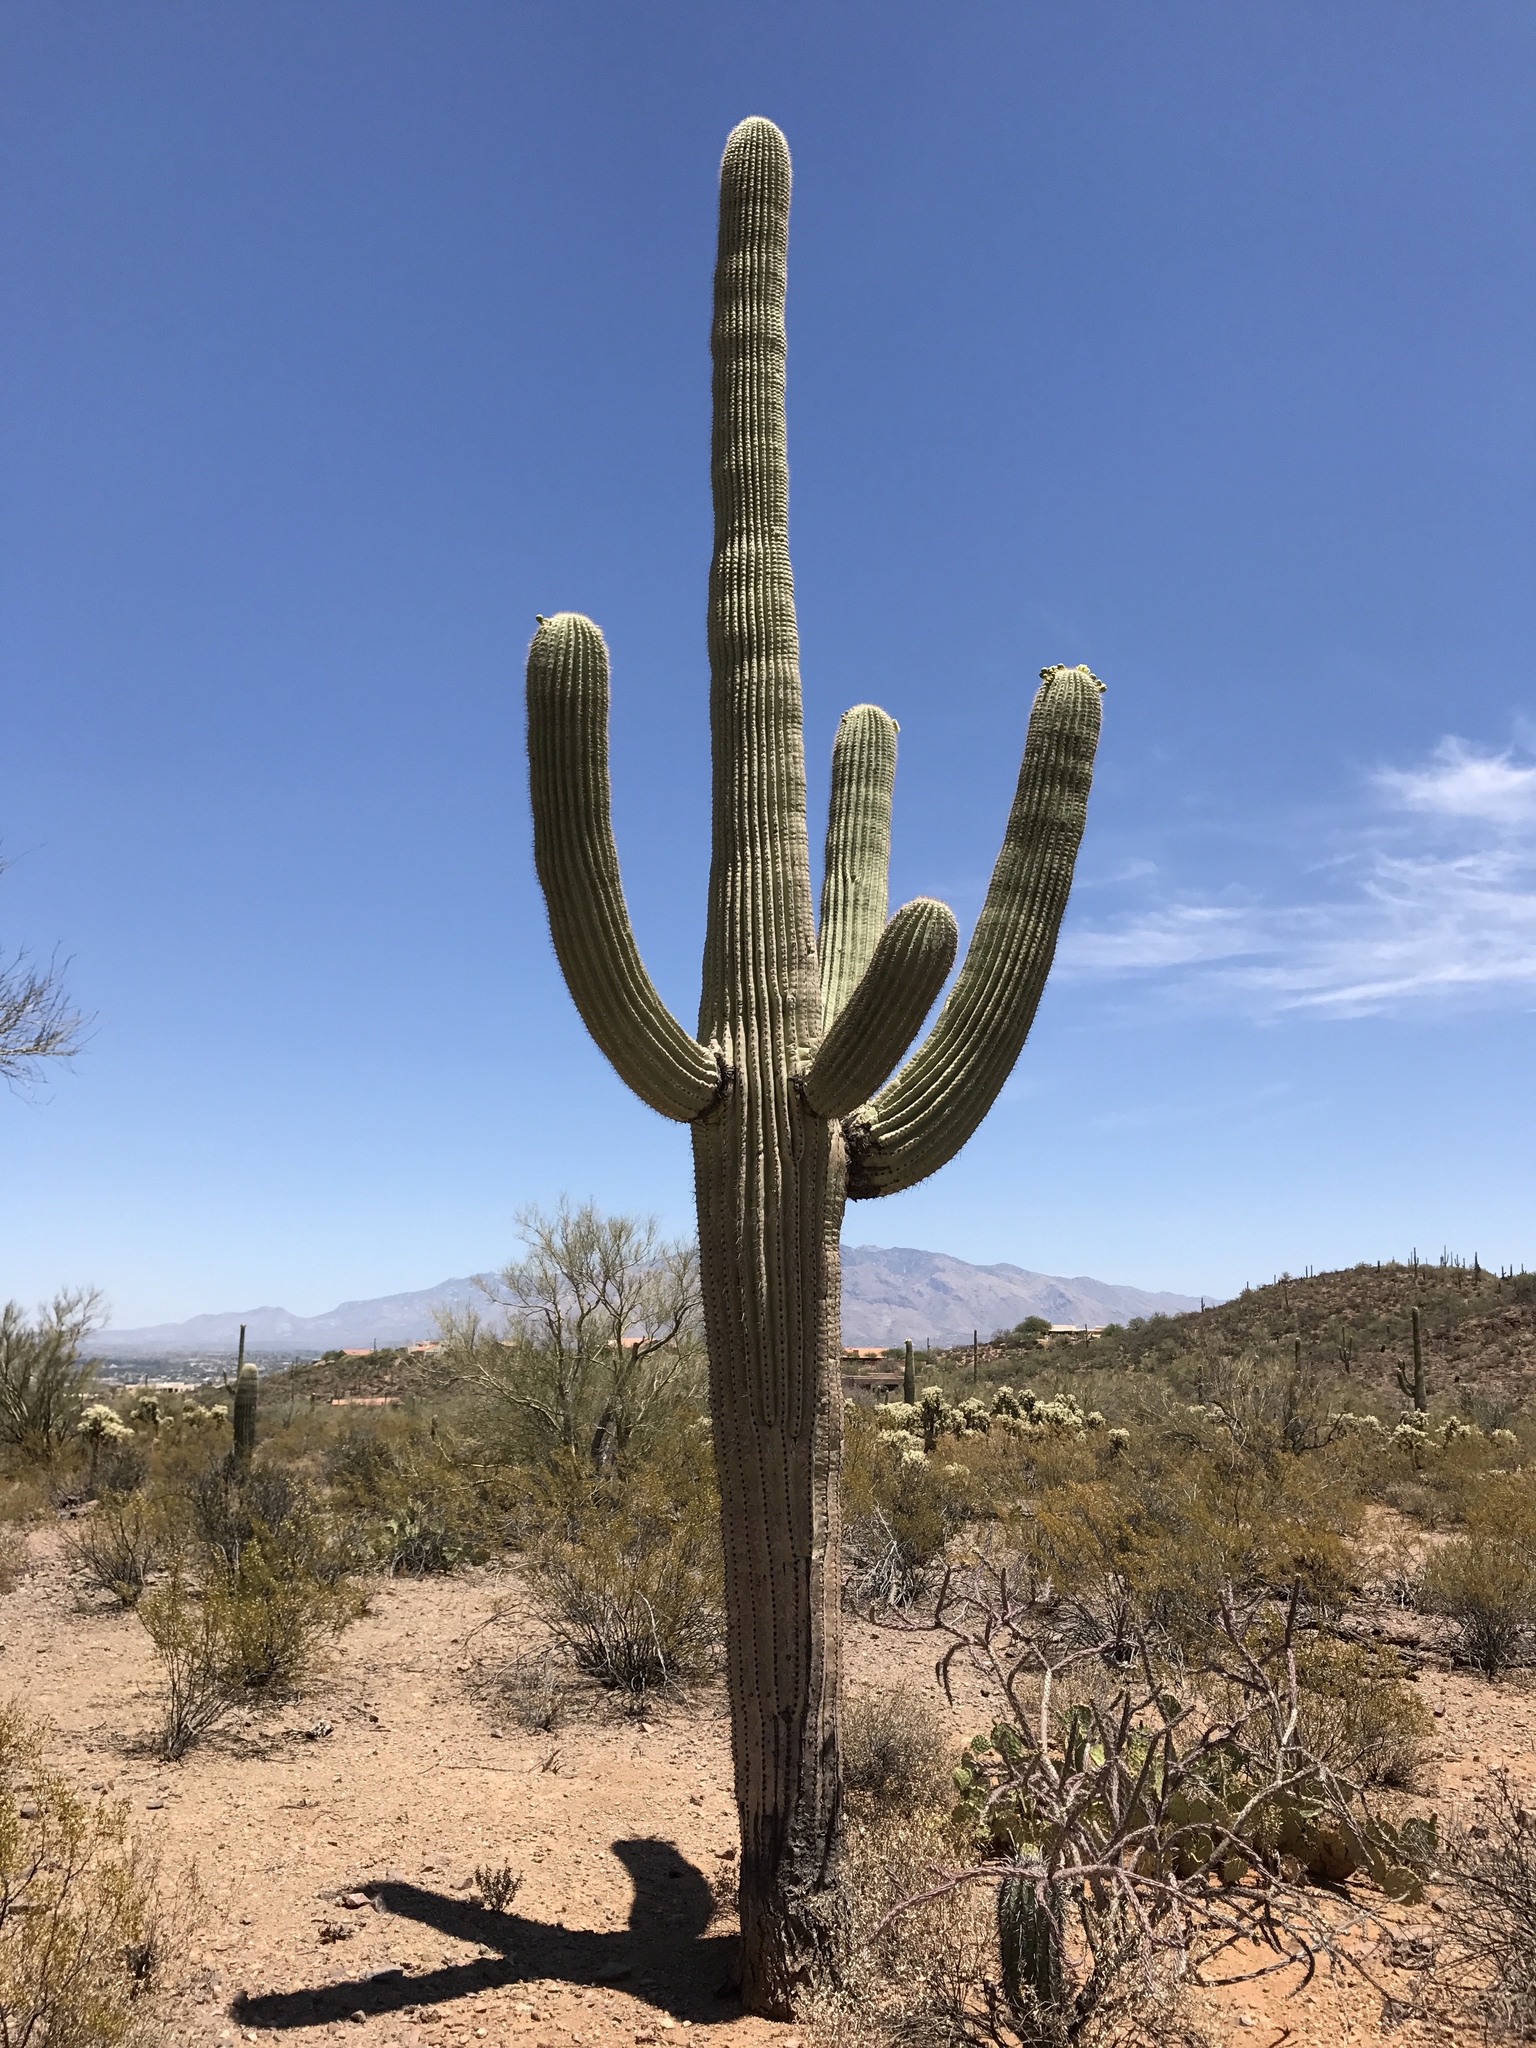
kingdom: Plantae
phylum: Tracheophyta
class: Magnoliopsida
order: Caryophyllales
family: Cactaceae
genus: Carnegiea
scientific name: Carnegiea gigantea
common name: Saguaro
